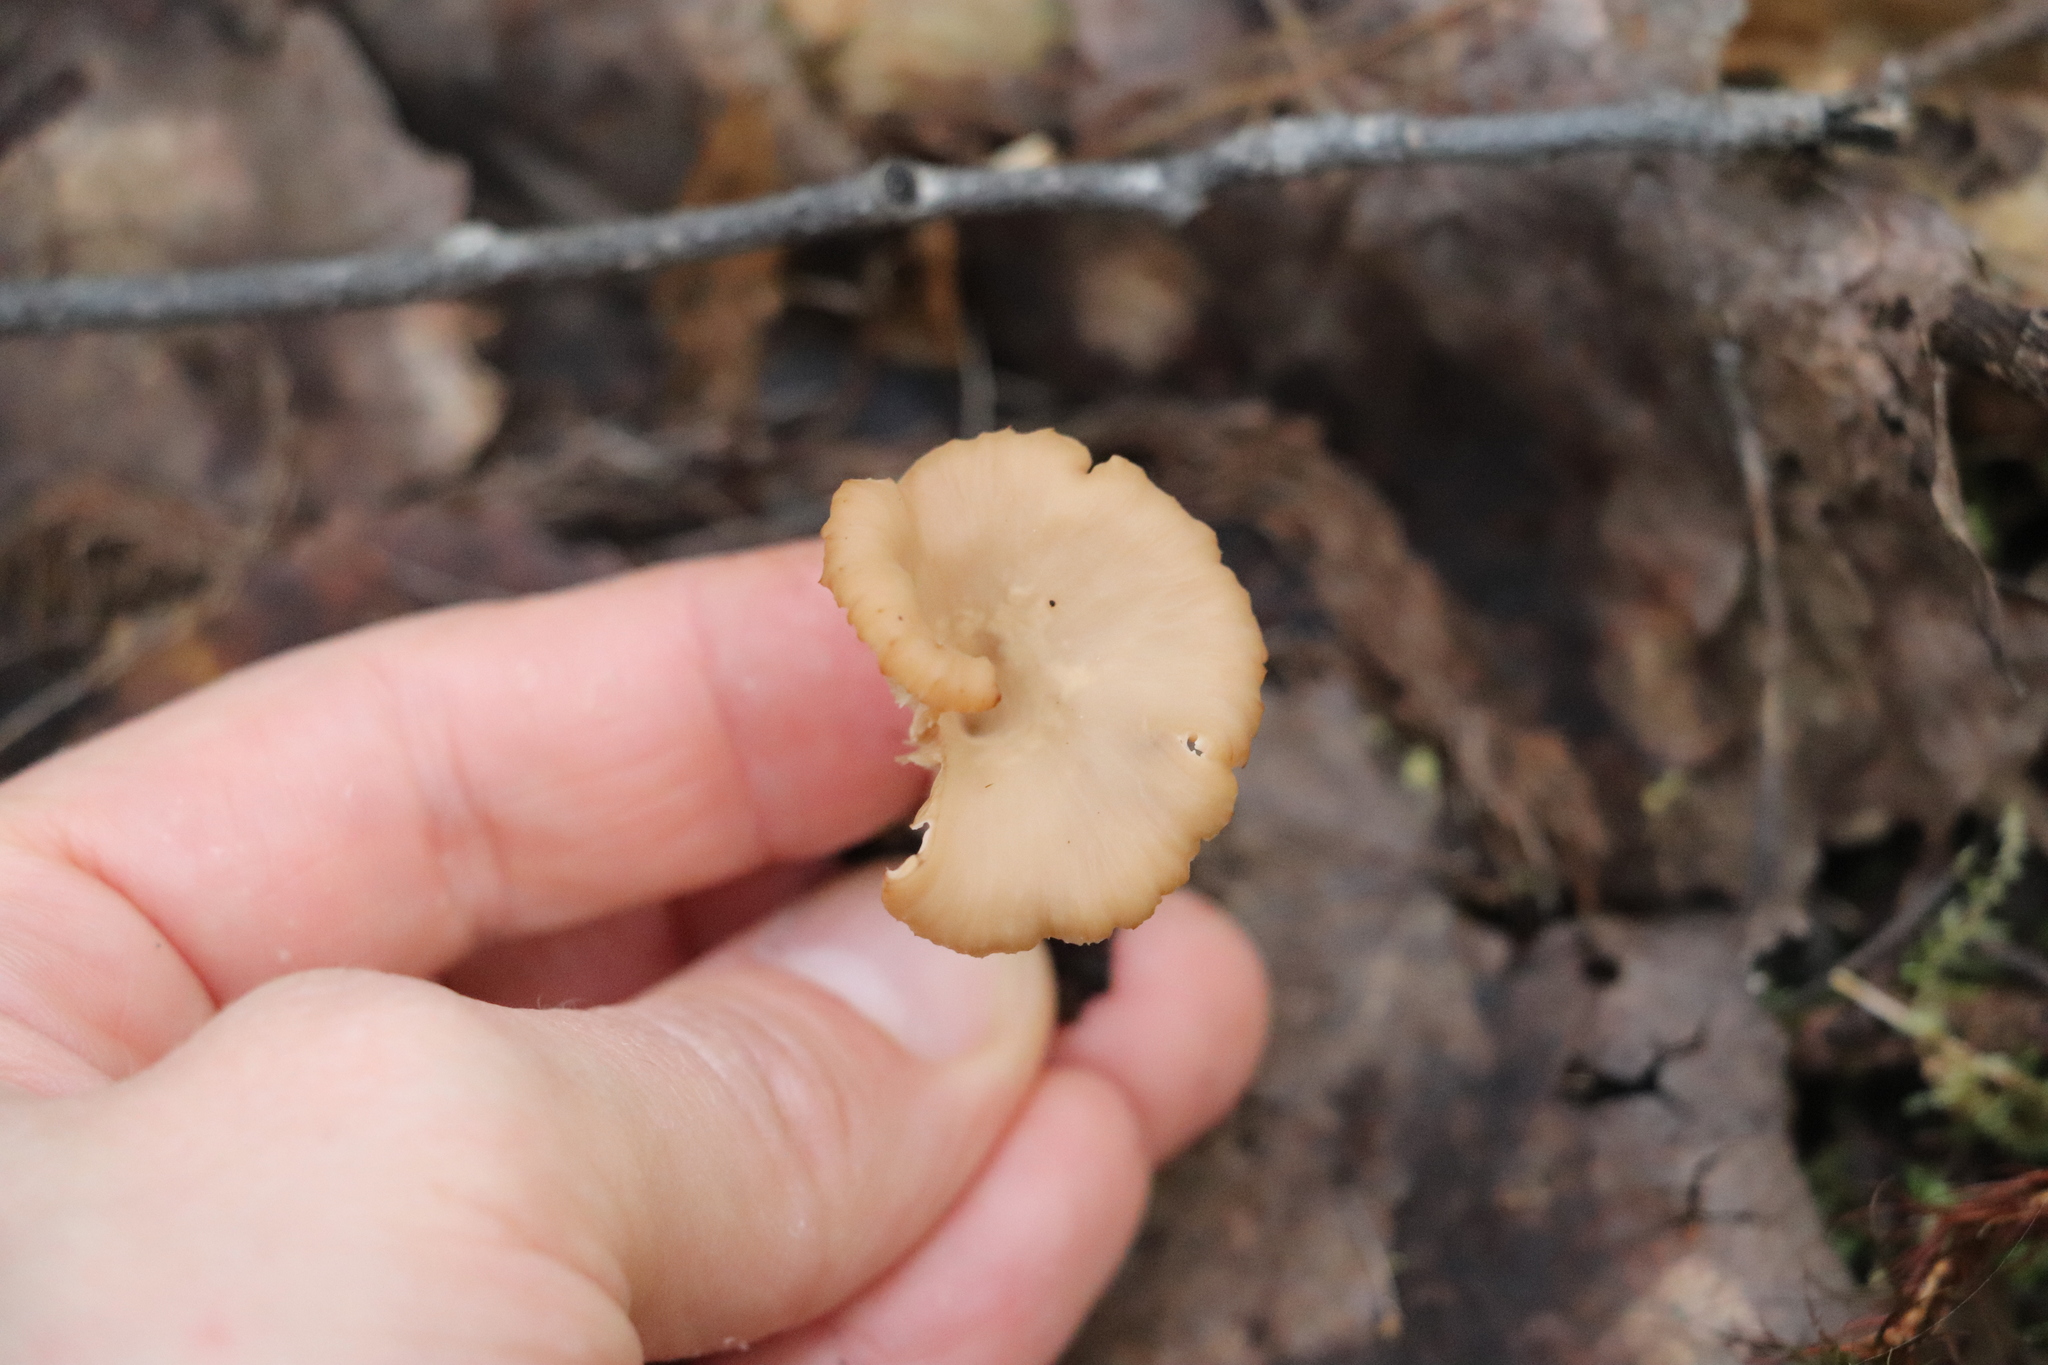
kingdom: Fungi
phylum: Basidiomycota
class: Agaricomycetes
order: Russulales
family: Auriscalpiaceae
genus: Lentinellus
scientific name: Lentinellus micheneri
